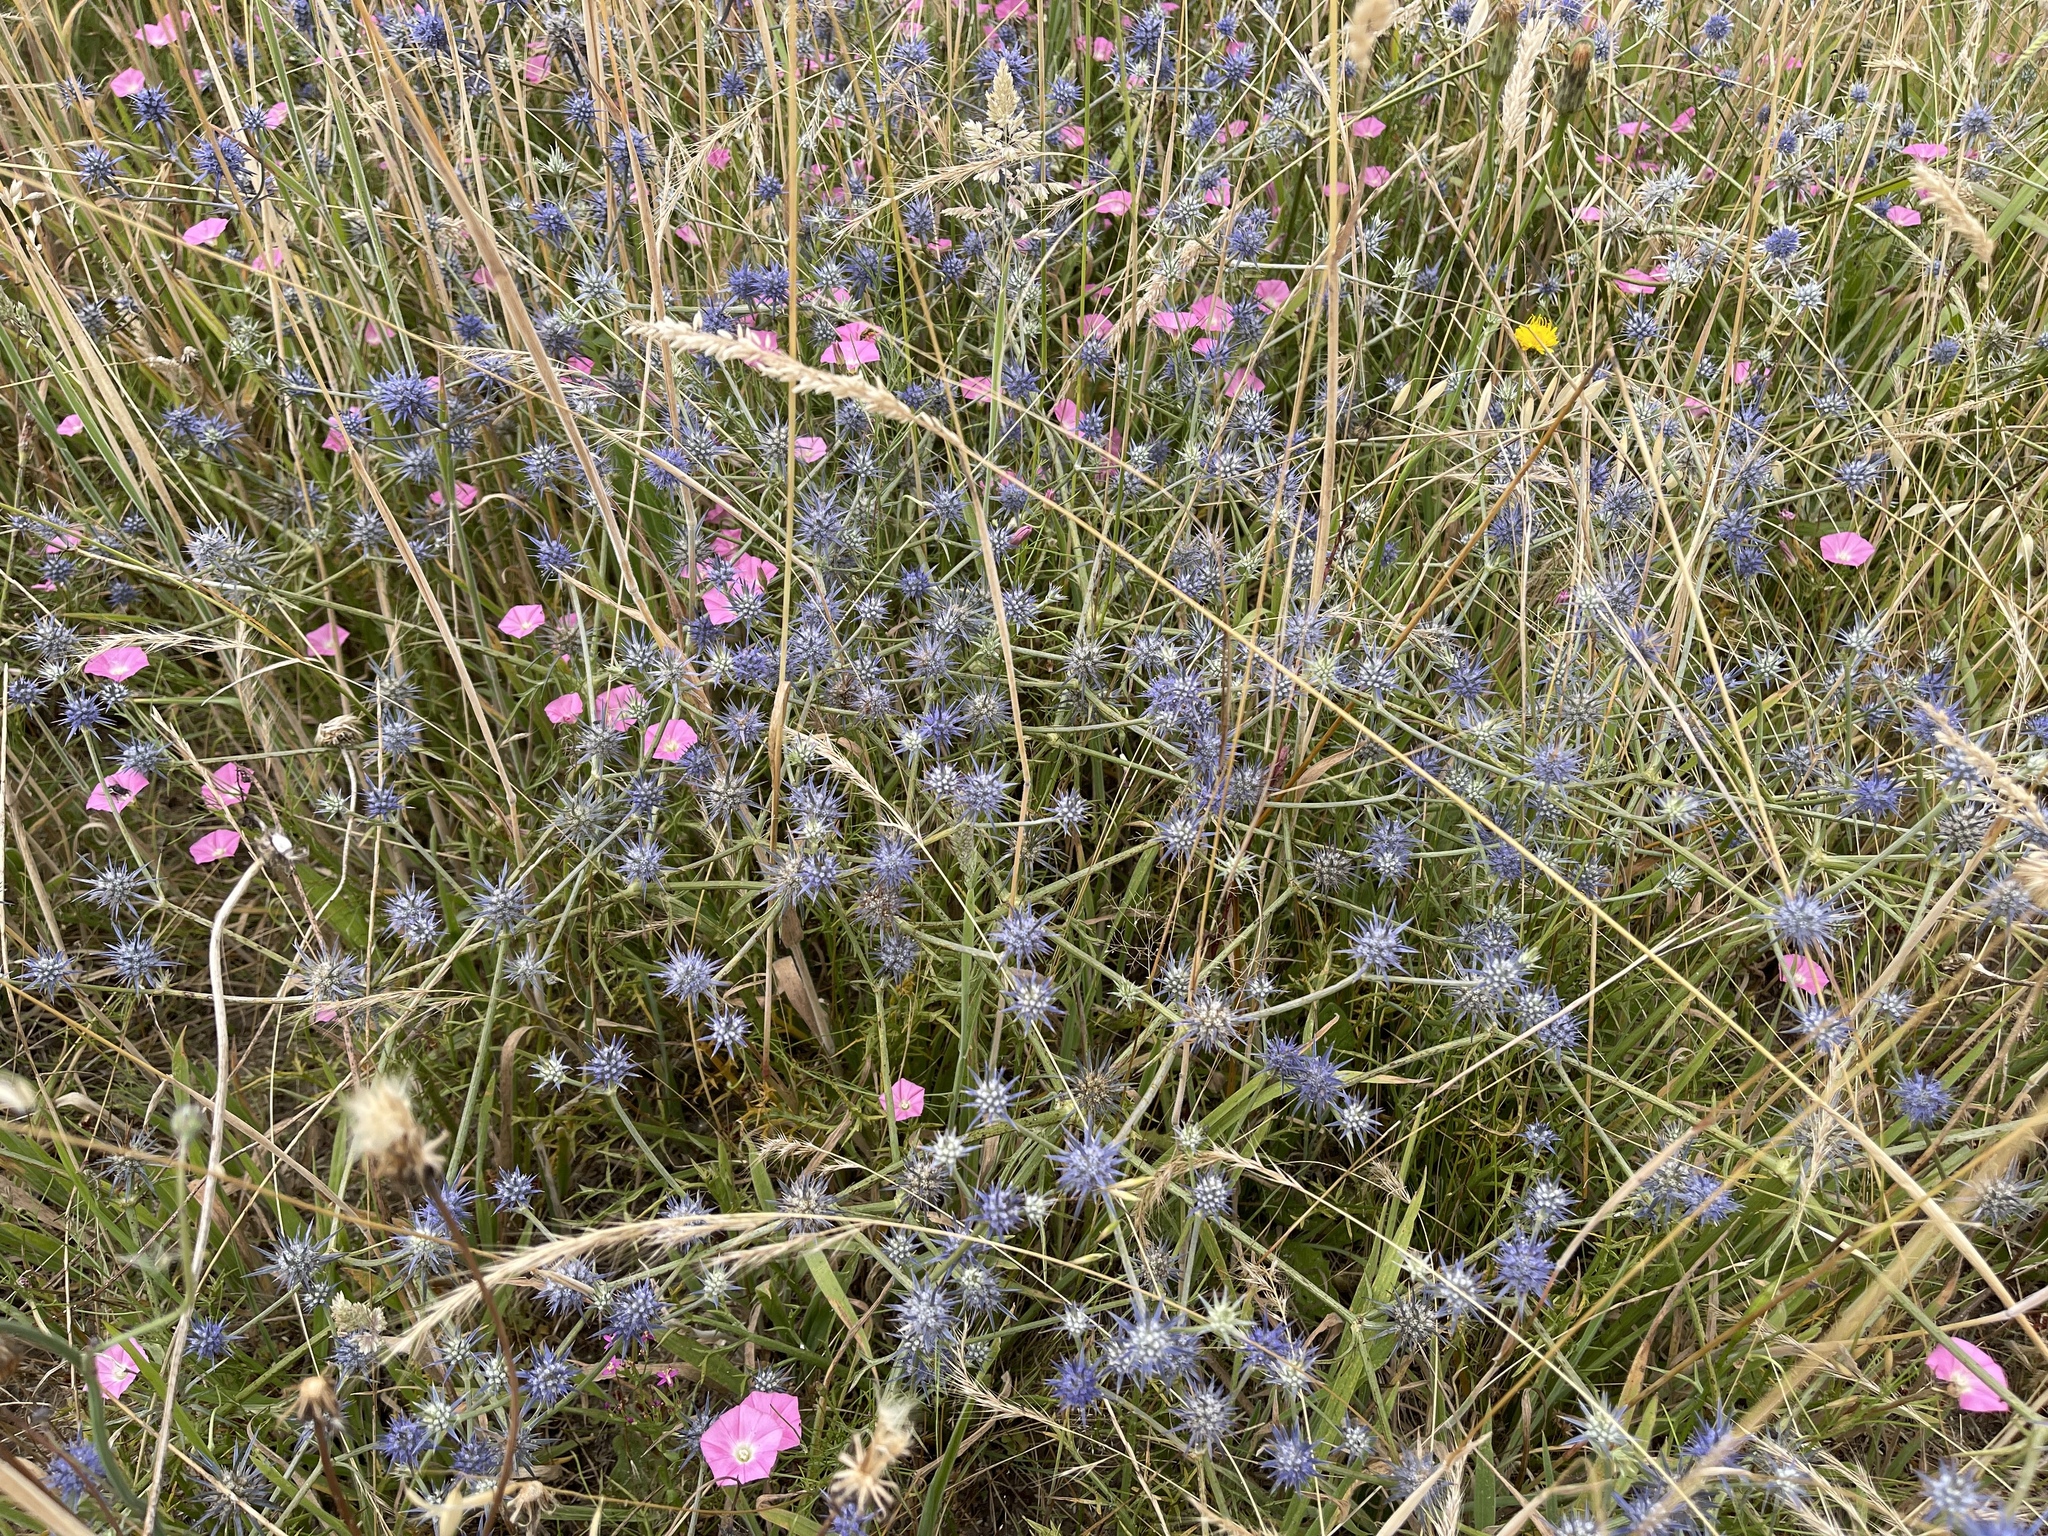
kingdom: Plantae
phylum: Tracheophyta
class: Magnoliopsida
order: Apiales
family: Apiaceae
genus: Eryngium
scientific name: Eryngium ovinum
